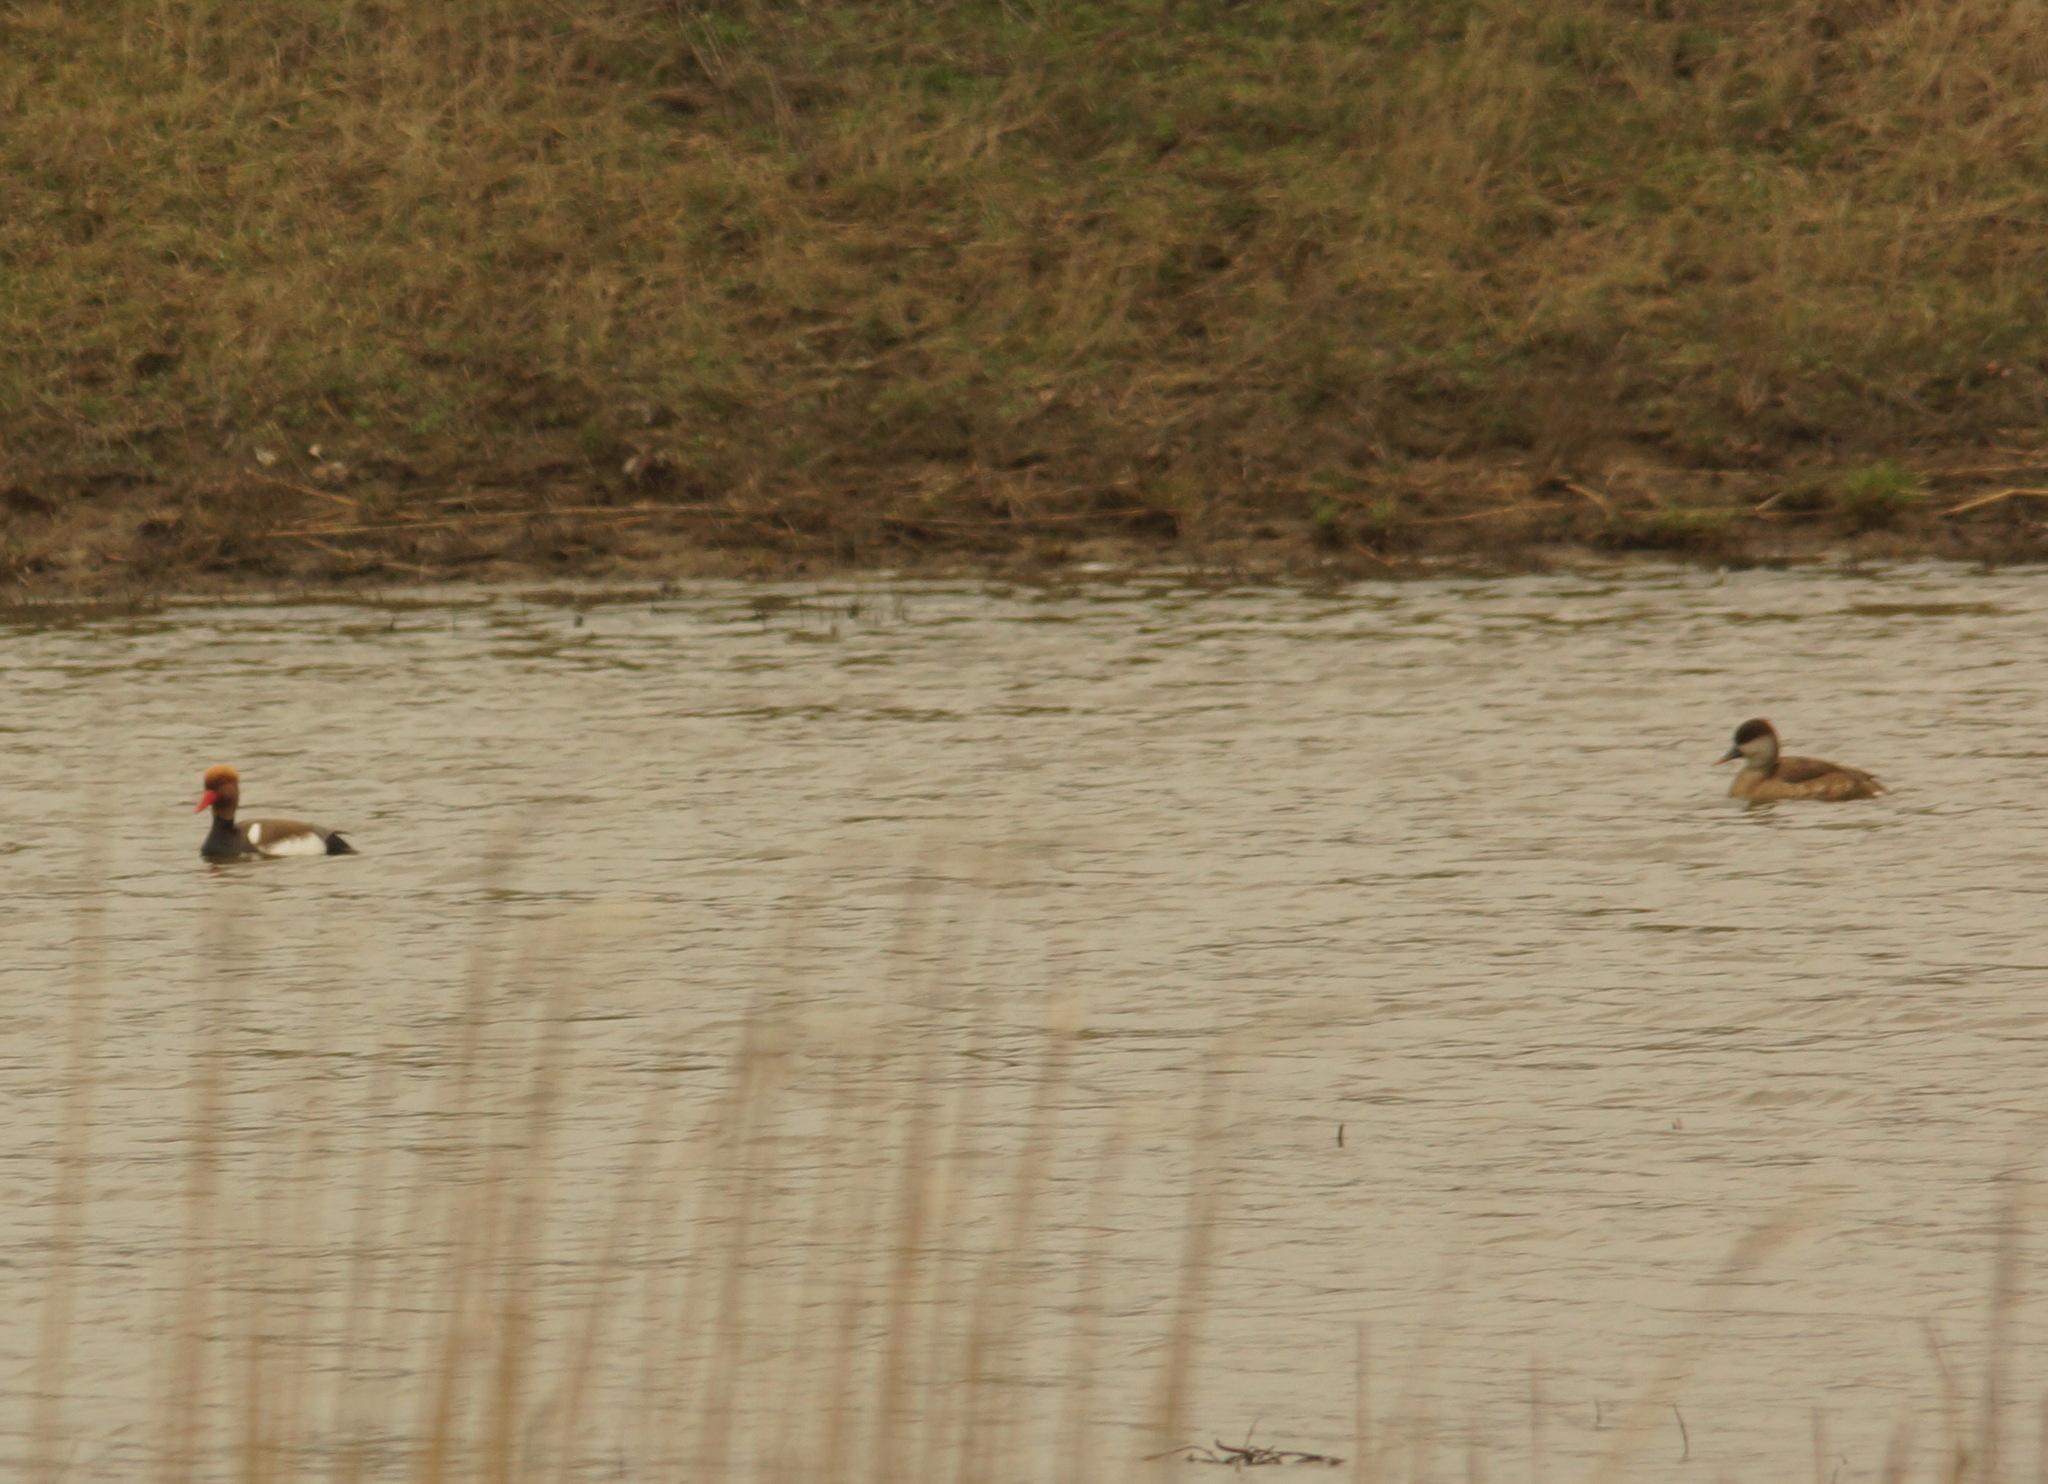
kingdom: Animalia
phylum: Chordata
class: Aves
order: Anseriformes
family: Anatidae
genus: Netta
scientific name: Netta rufina
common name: Red-crested pochard
